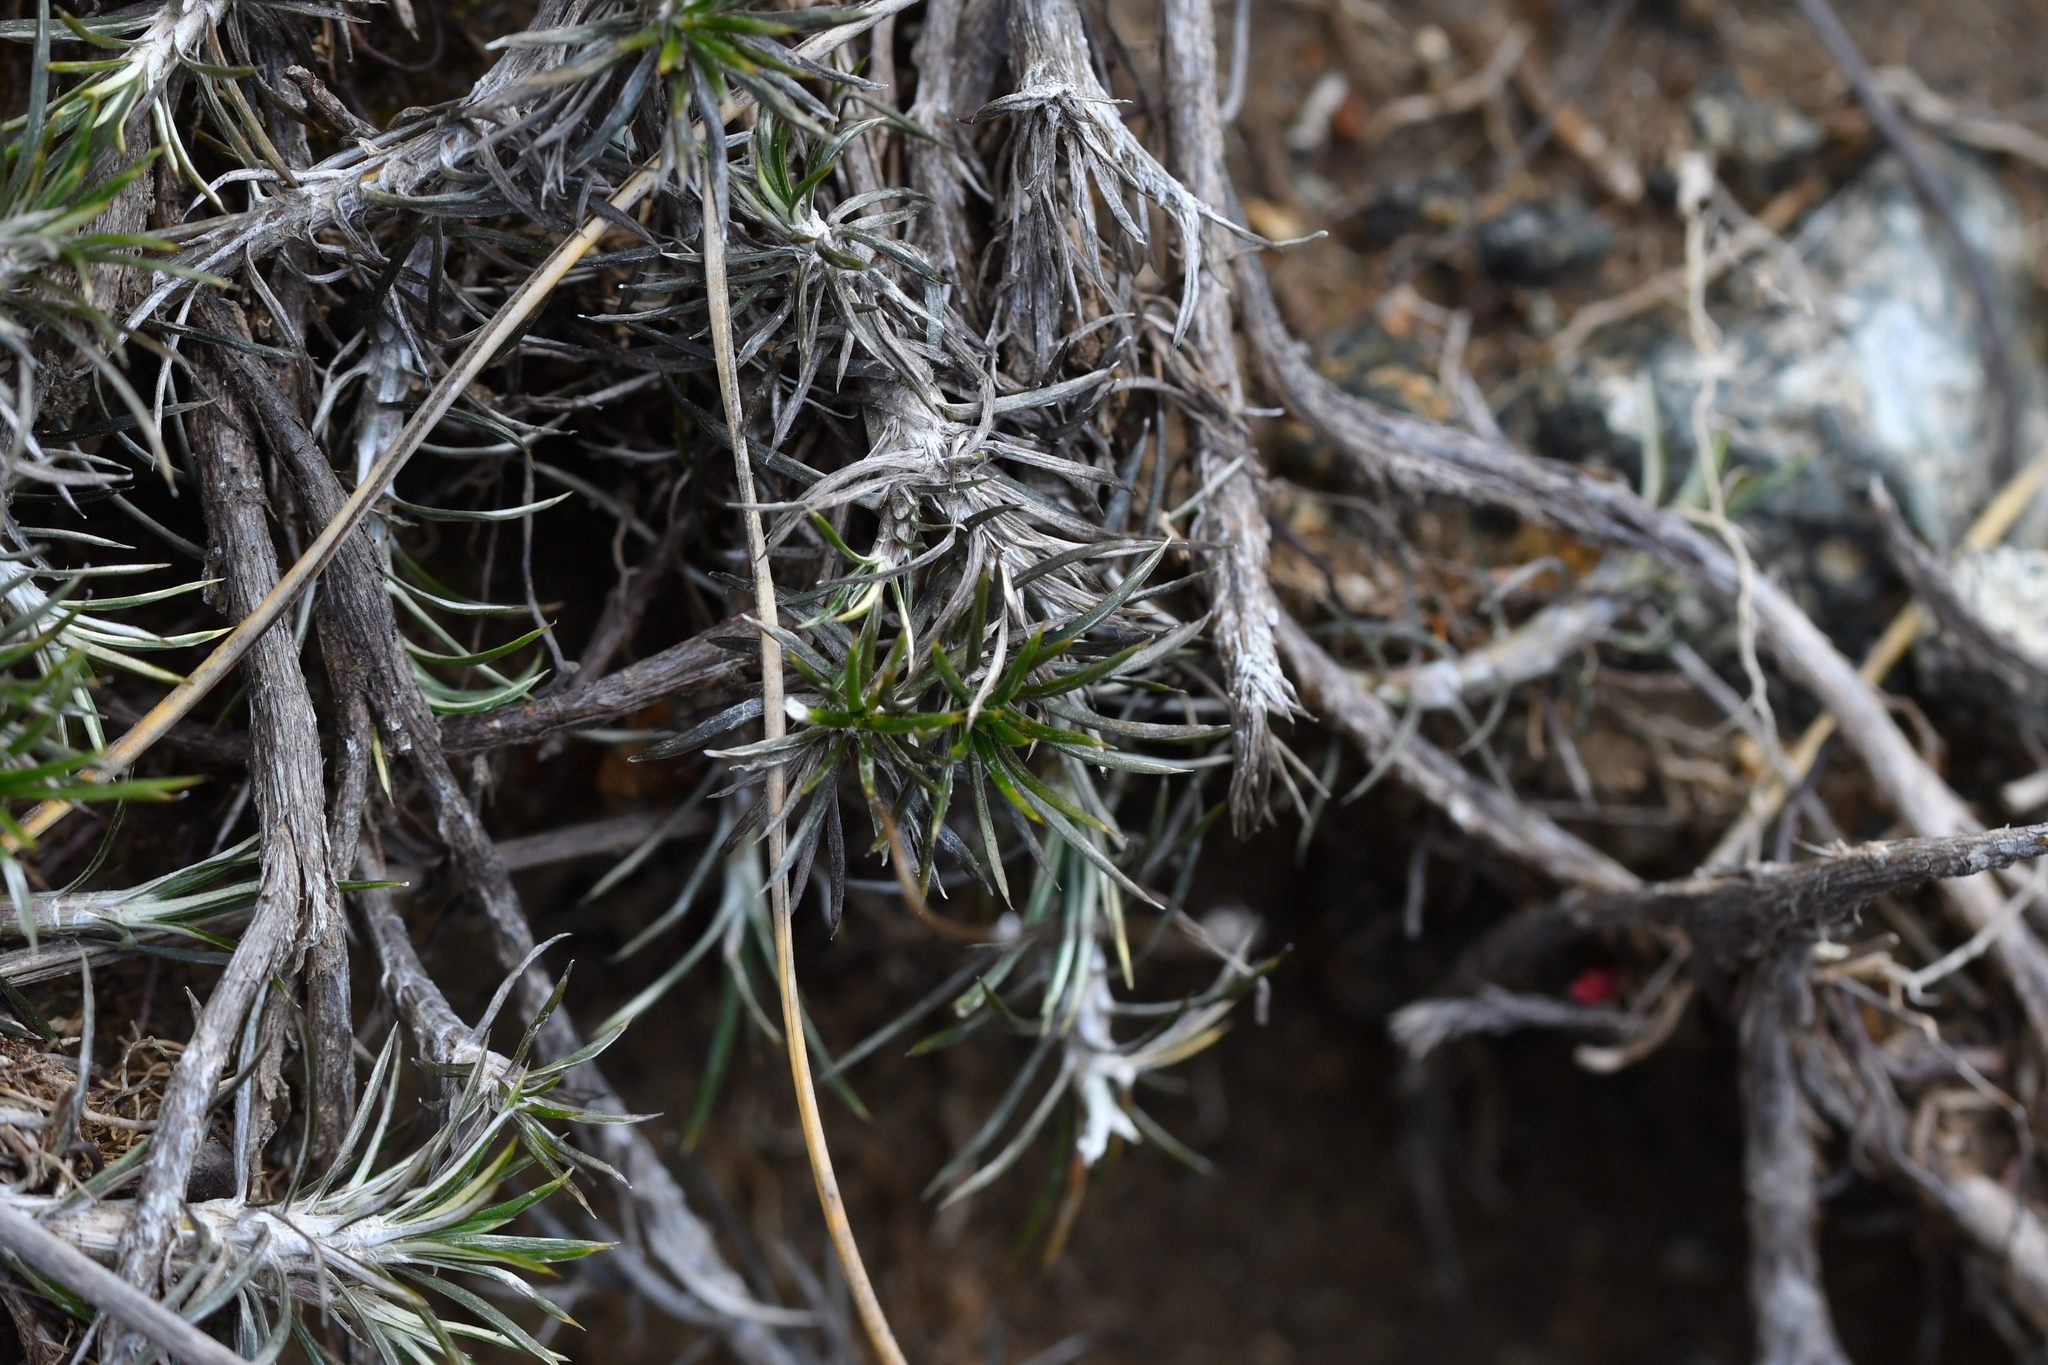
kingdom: Plantae
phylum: Tracheophyta
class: Magnoliopsida
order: Asterales
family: Asteraceae
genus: Celmisia
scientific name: Celmisia laricifolia
